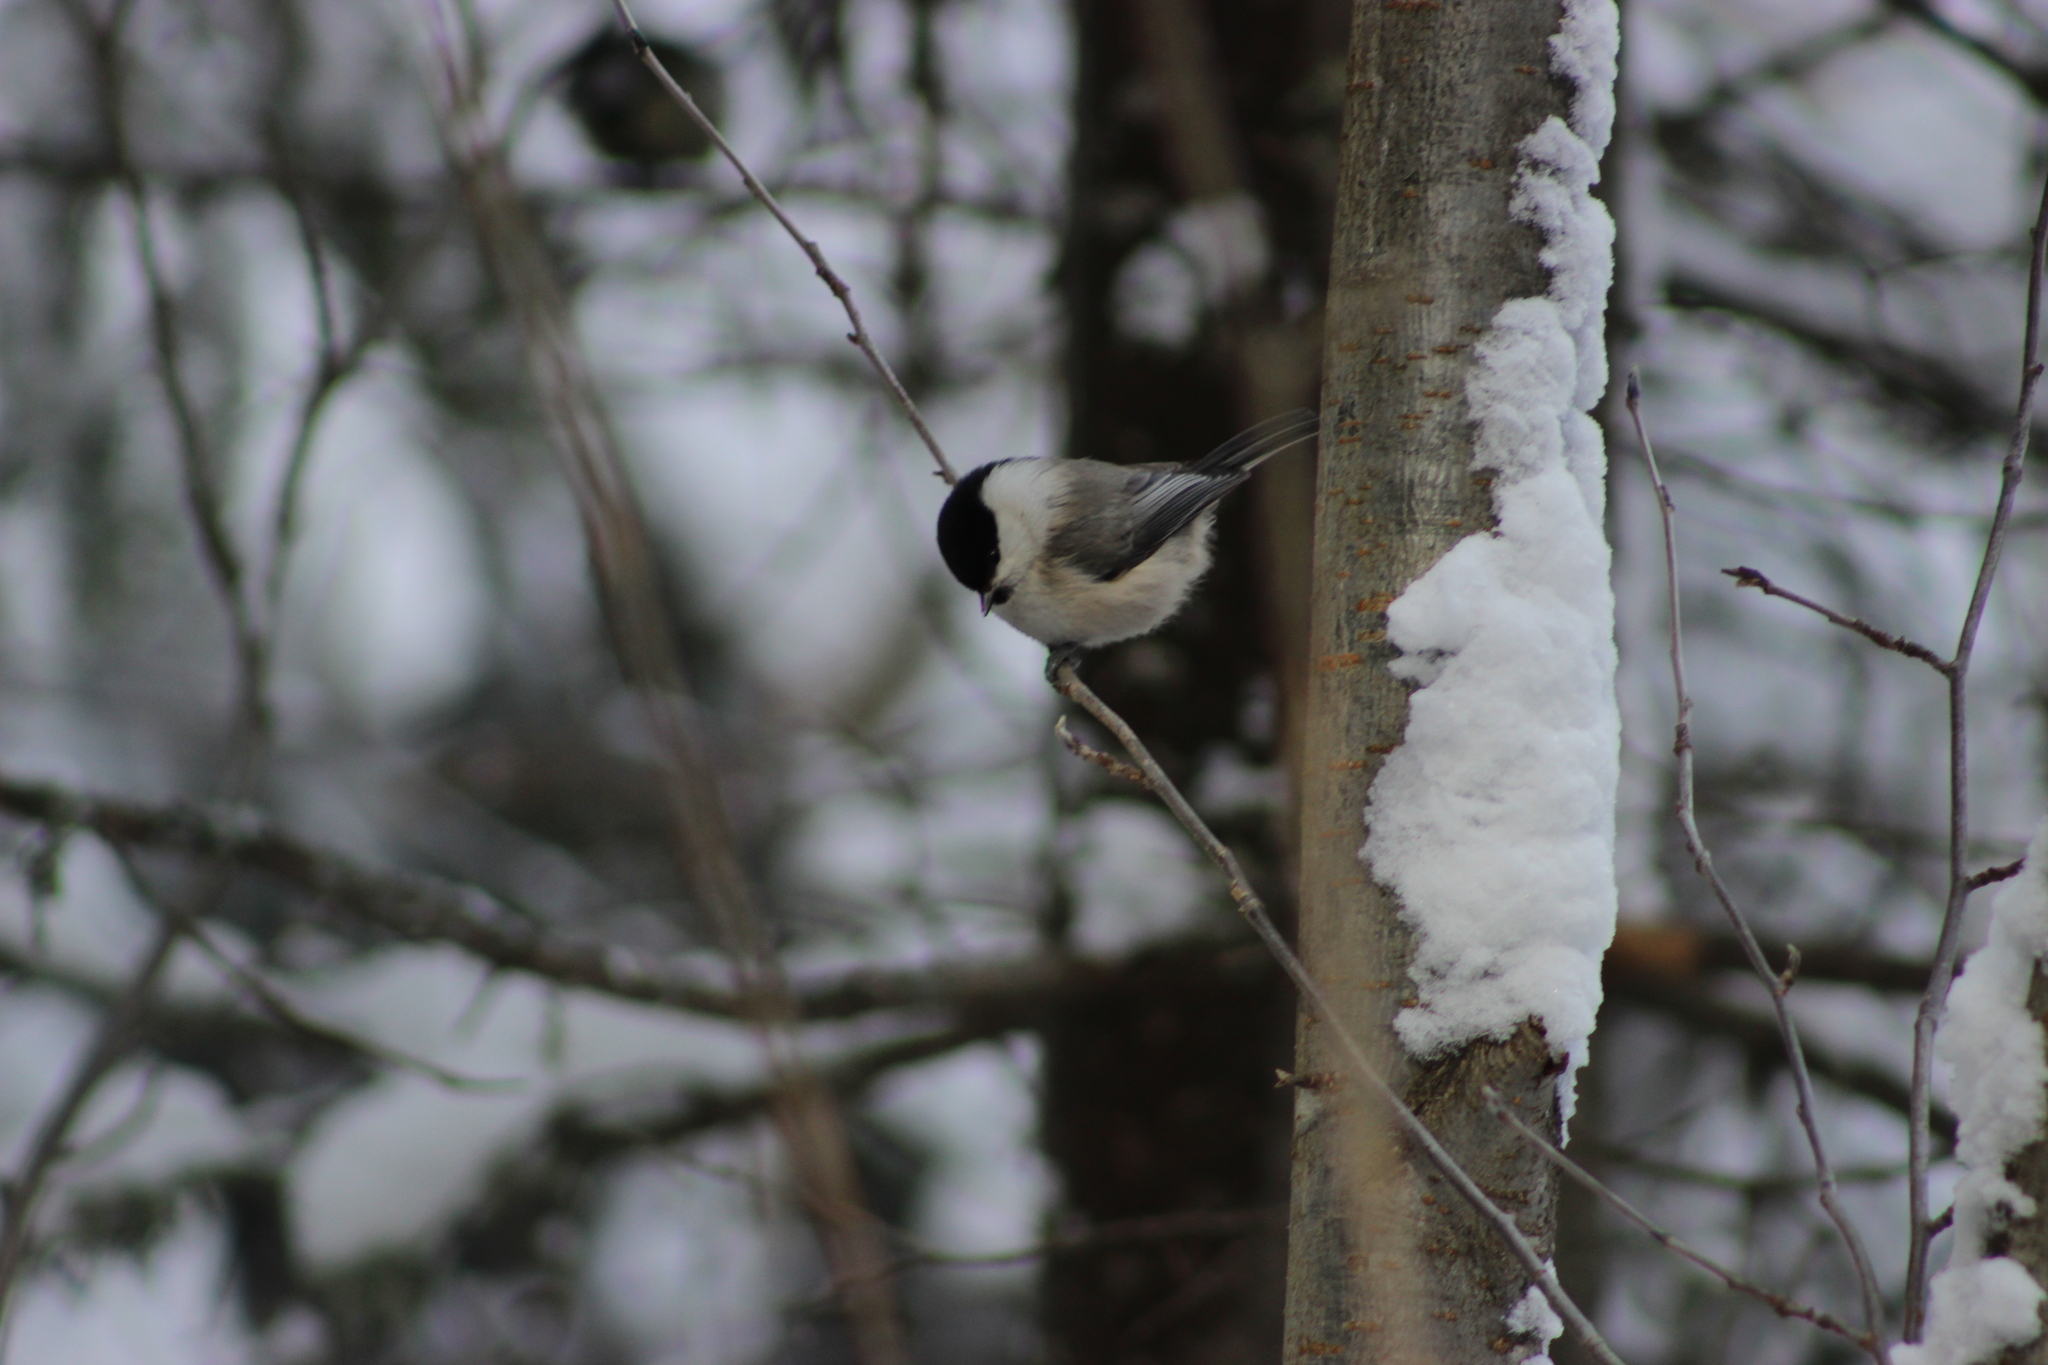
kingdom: Animalia
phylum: Chordata
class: Aves
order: Passeriformes
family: Paridae
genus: Poecile
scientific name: Poecile montanus
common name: Willow tit
